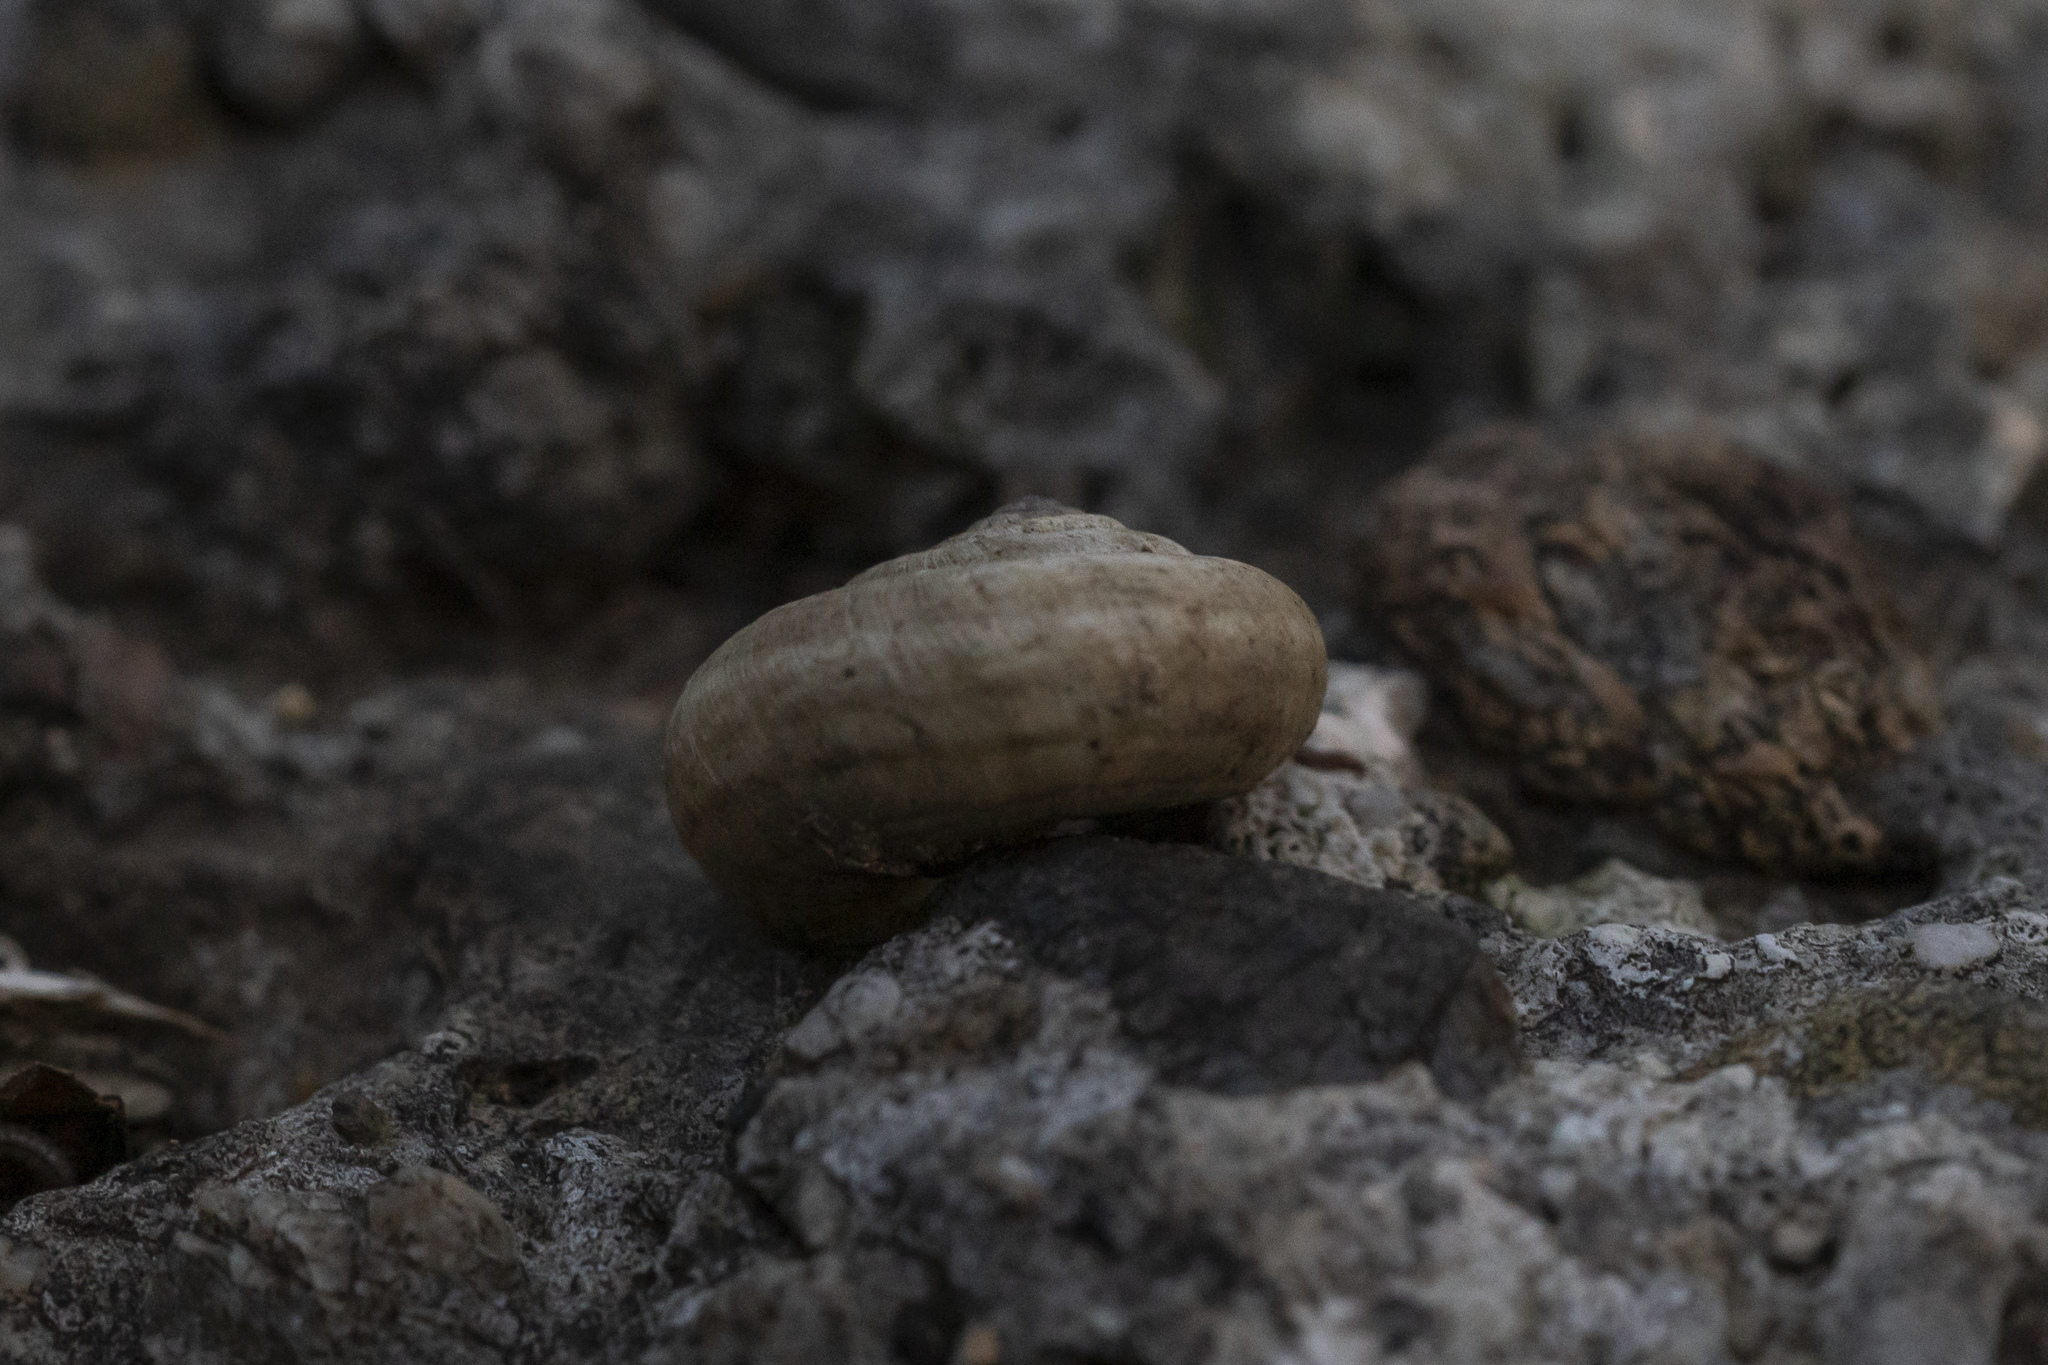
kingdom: Animalia
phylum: Mollusca
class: Gastropoda
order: Stylommatophora
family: Geomitridae
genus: Xeropicta
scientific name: Xeropicta krynickii
